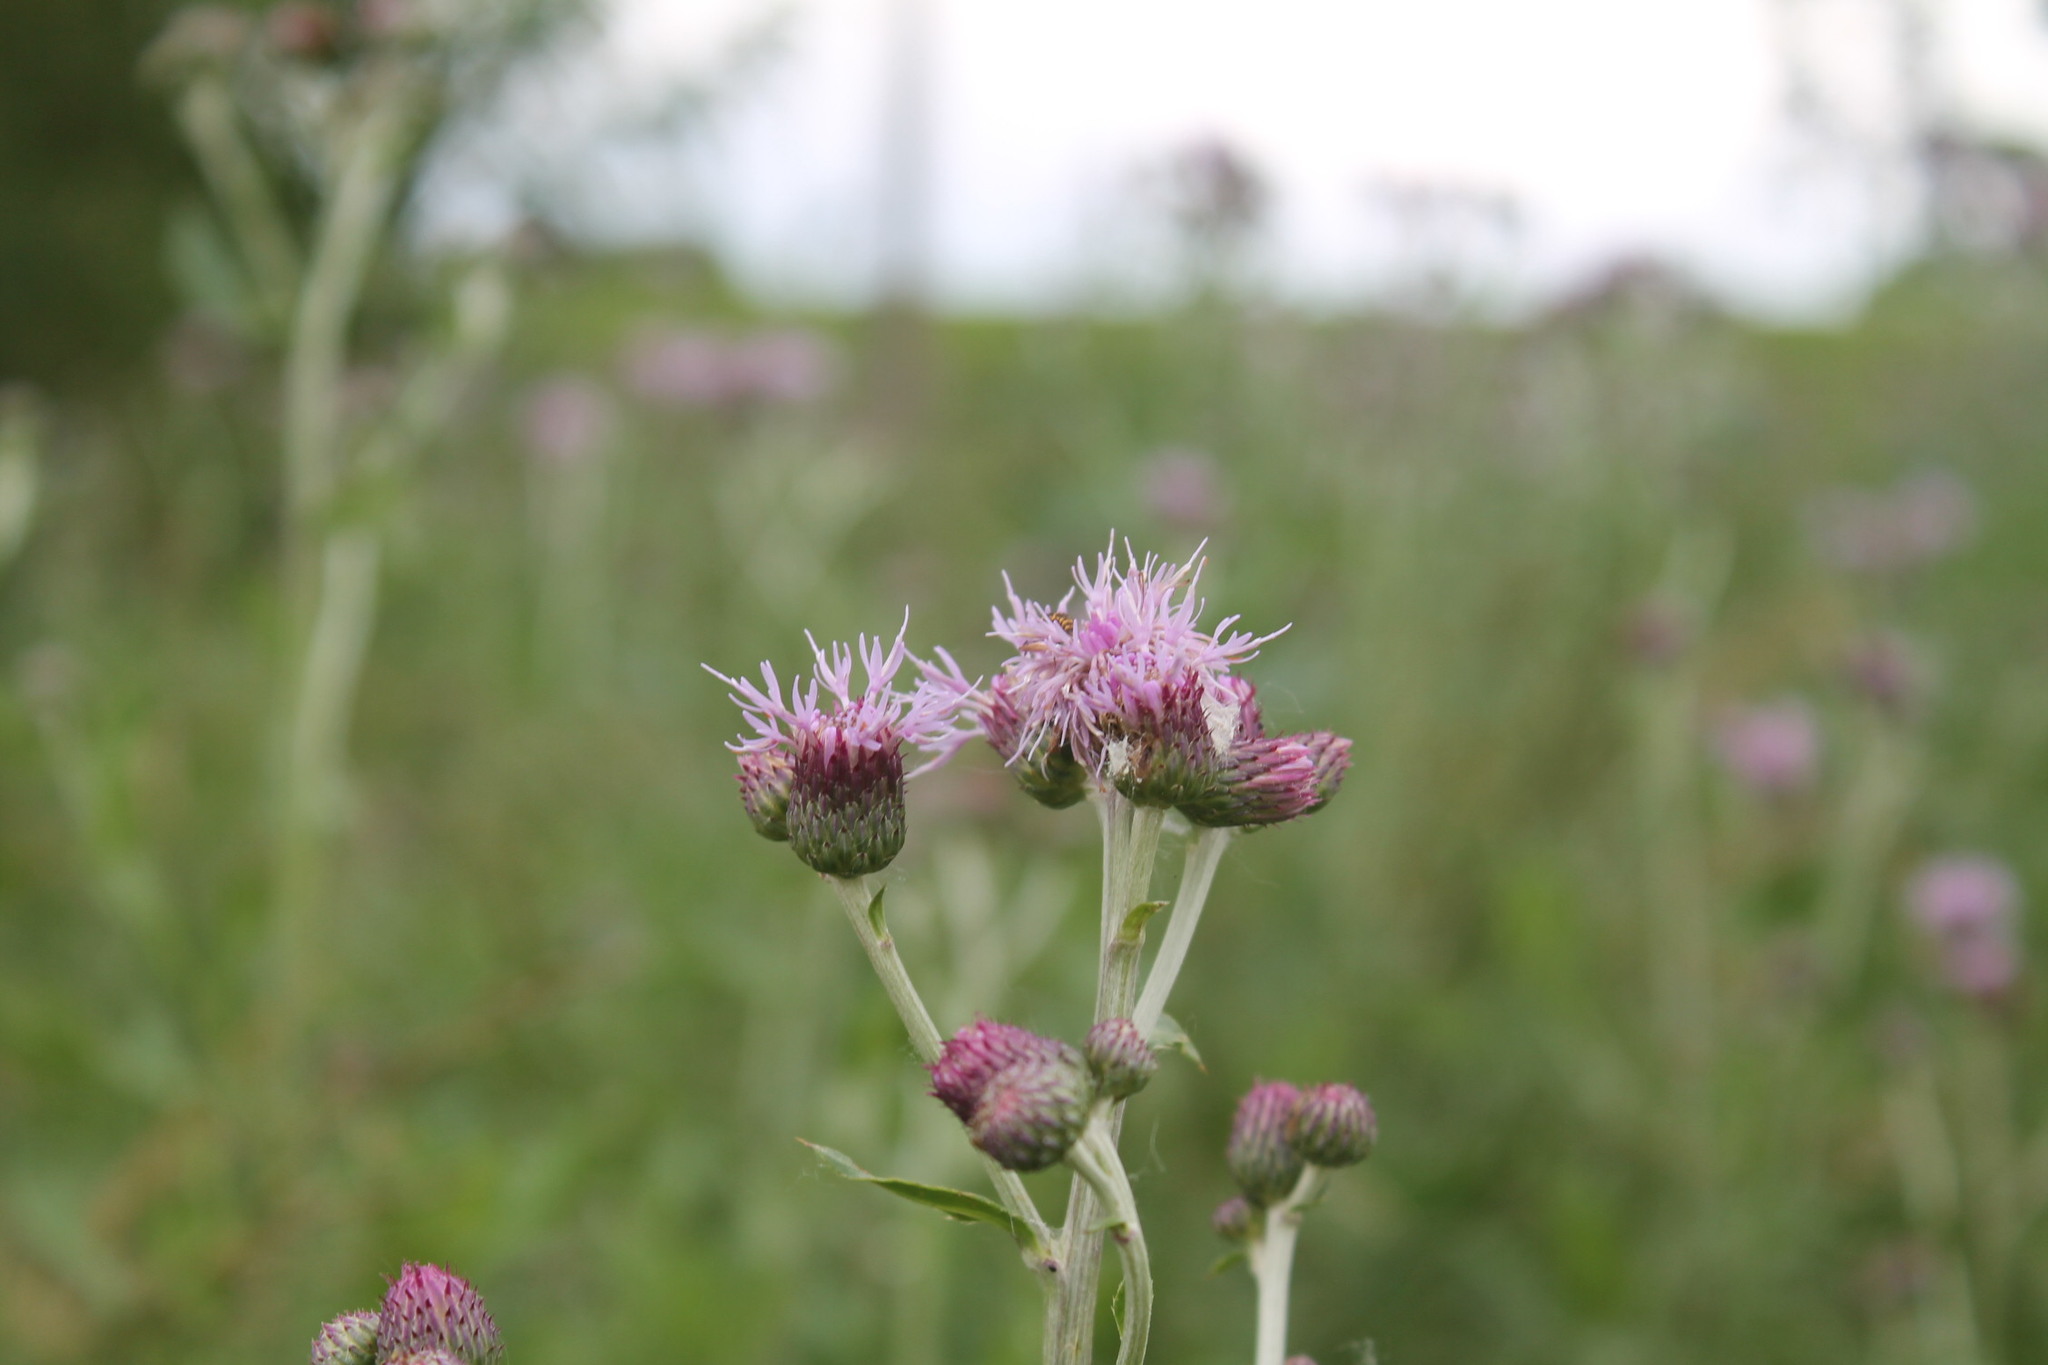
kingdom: Plantae
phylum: Tracheophyta
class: Magnoliopsida
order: Asterales
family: Asteraceae
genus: Cirsium
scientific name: Cirsium arvense
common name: Creeping thistle
